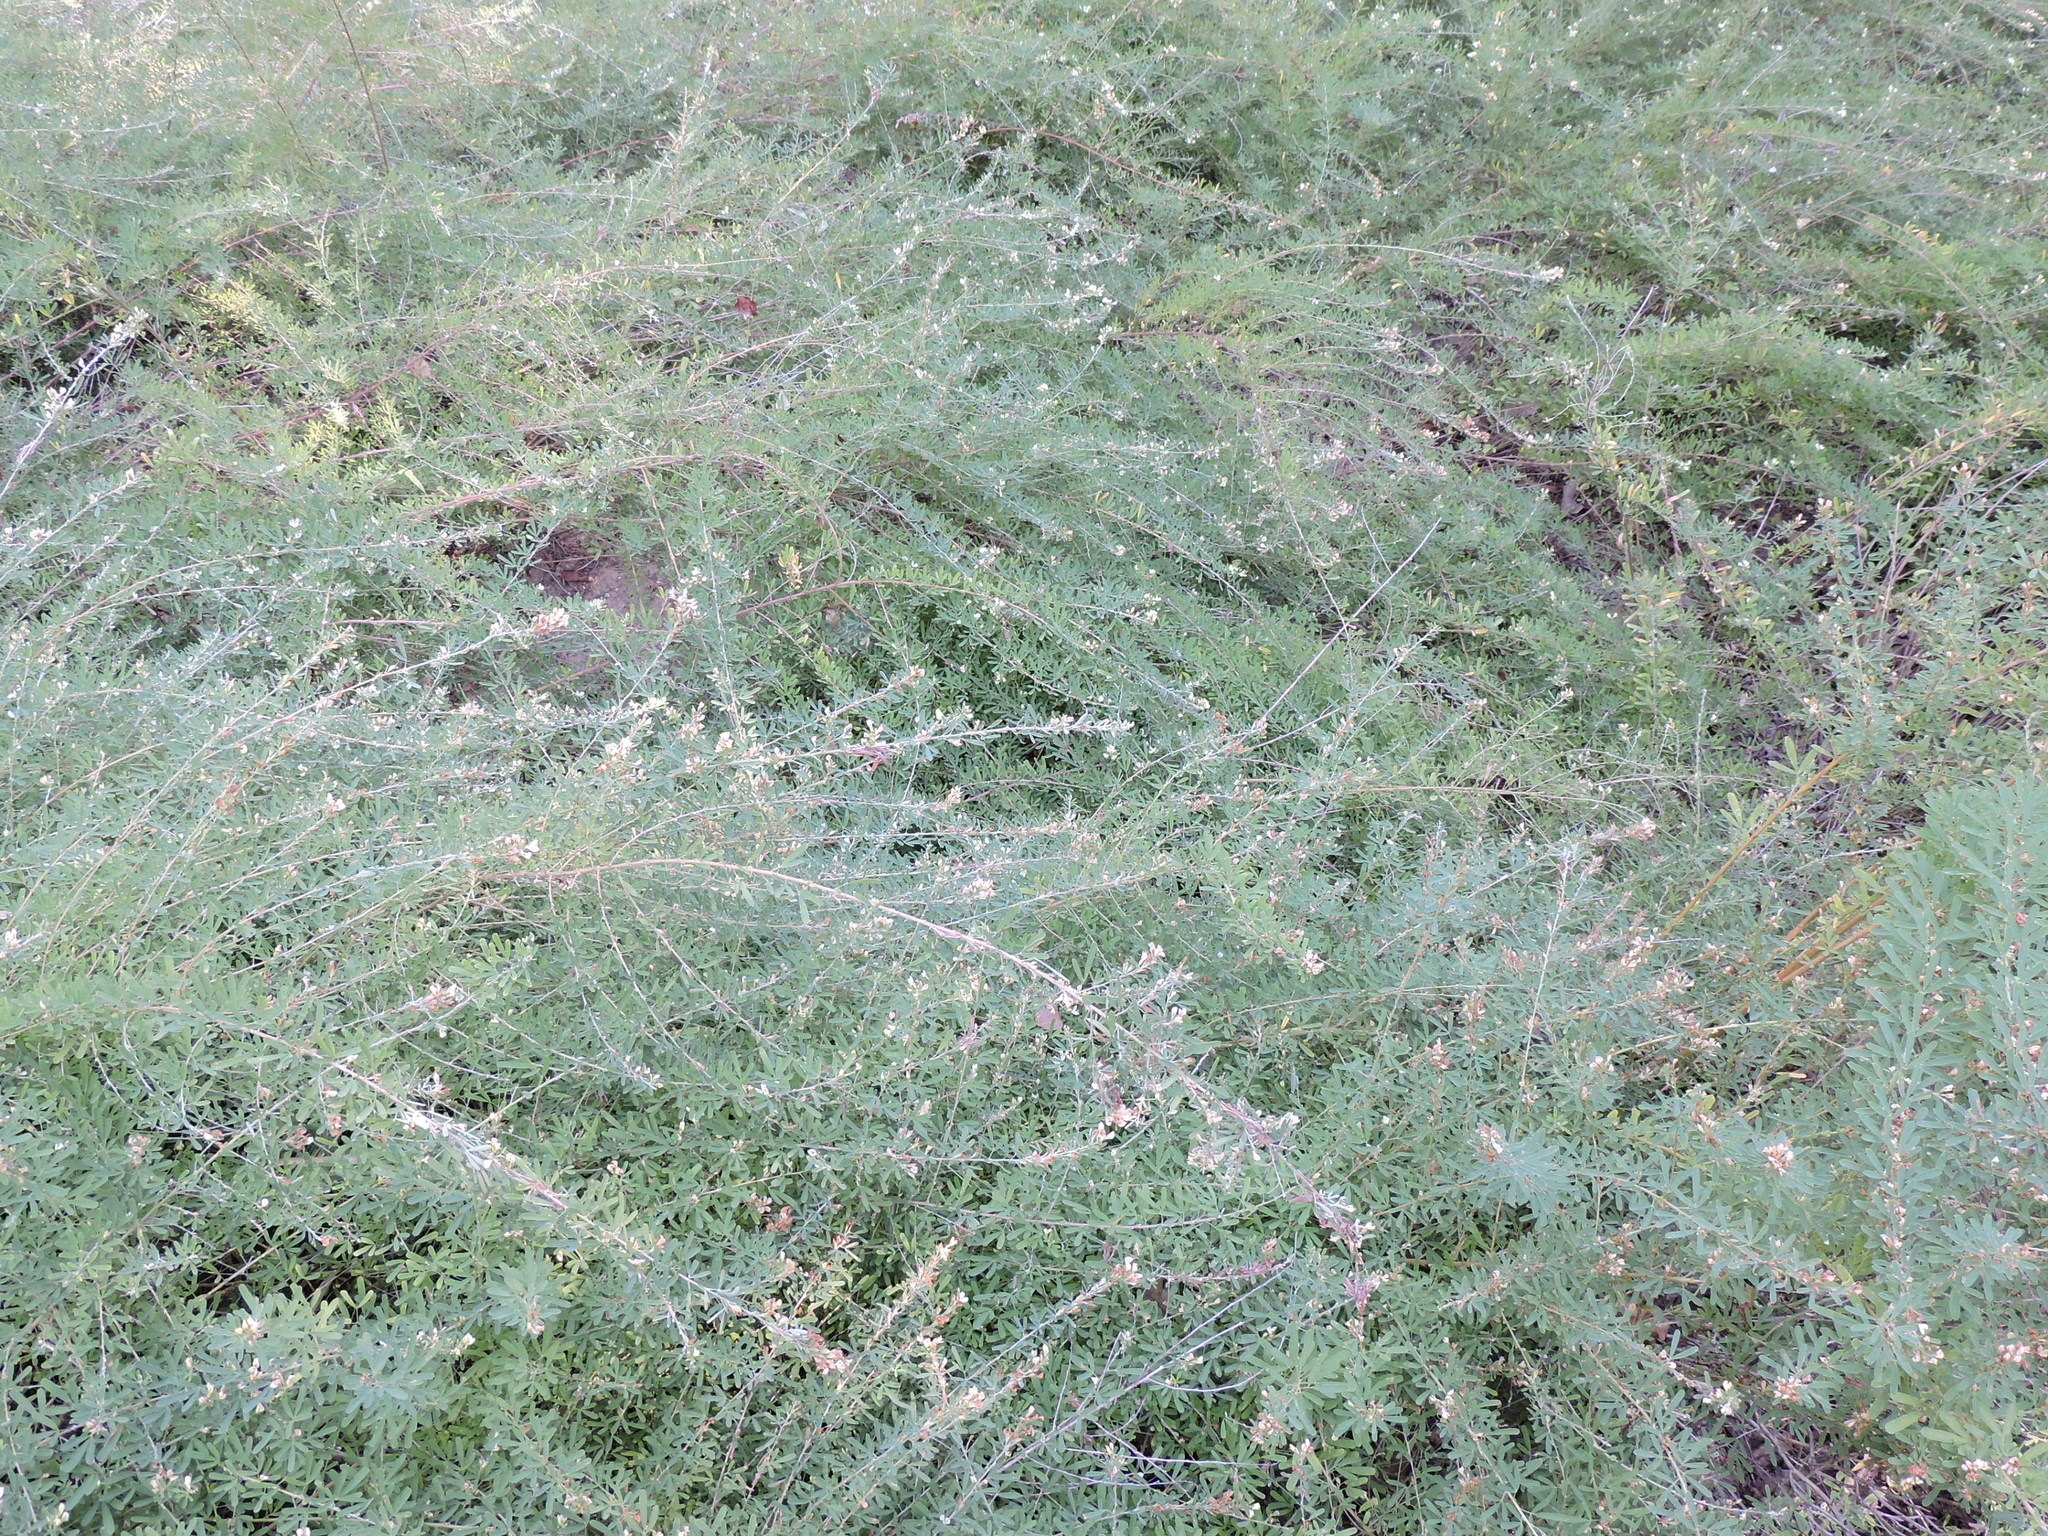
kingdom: Plantae
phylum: Tracheophyta
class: Magnoliopsida
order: Fabales
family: Fabaceae
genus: Lespedeza
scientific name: Lespedeza cuneata
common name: Chinese bush-clover
